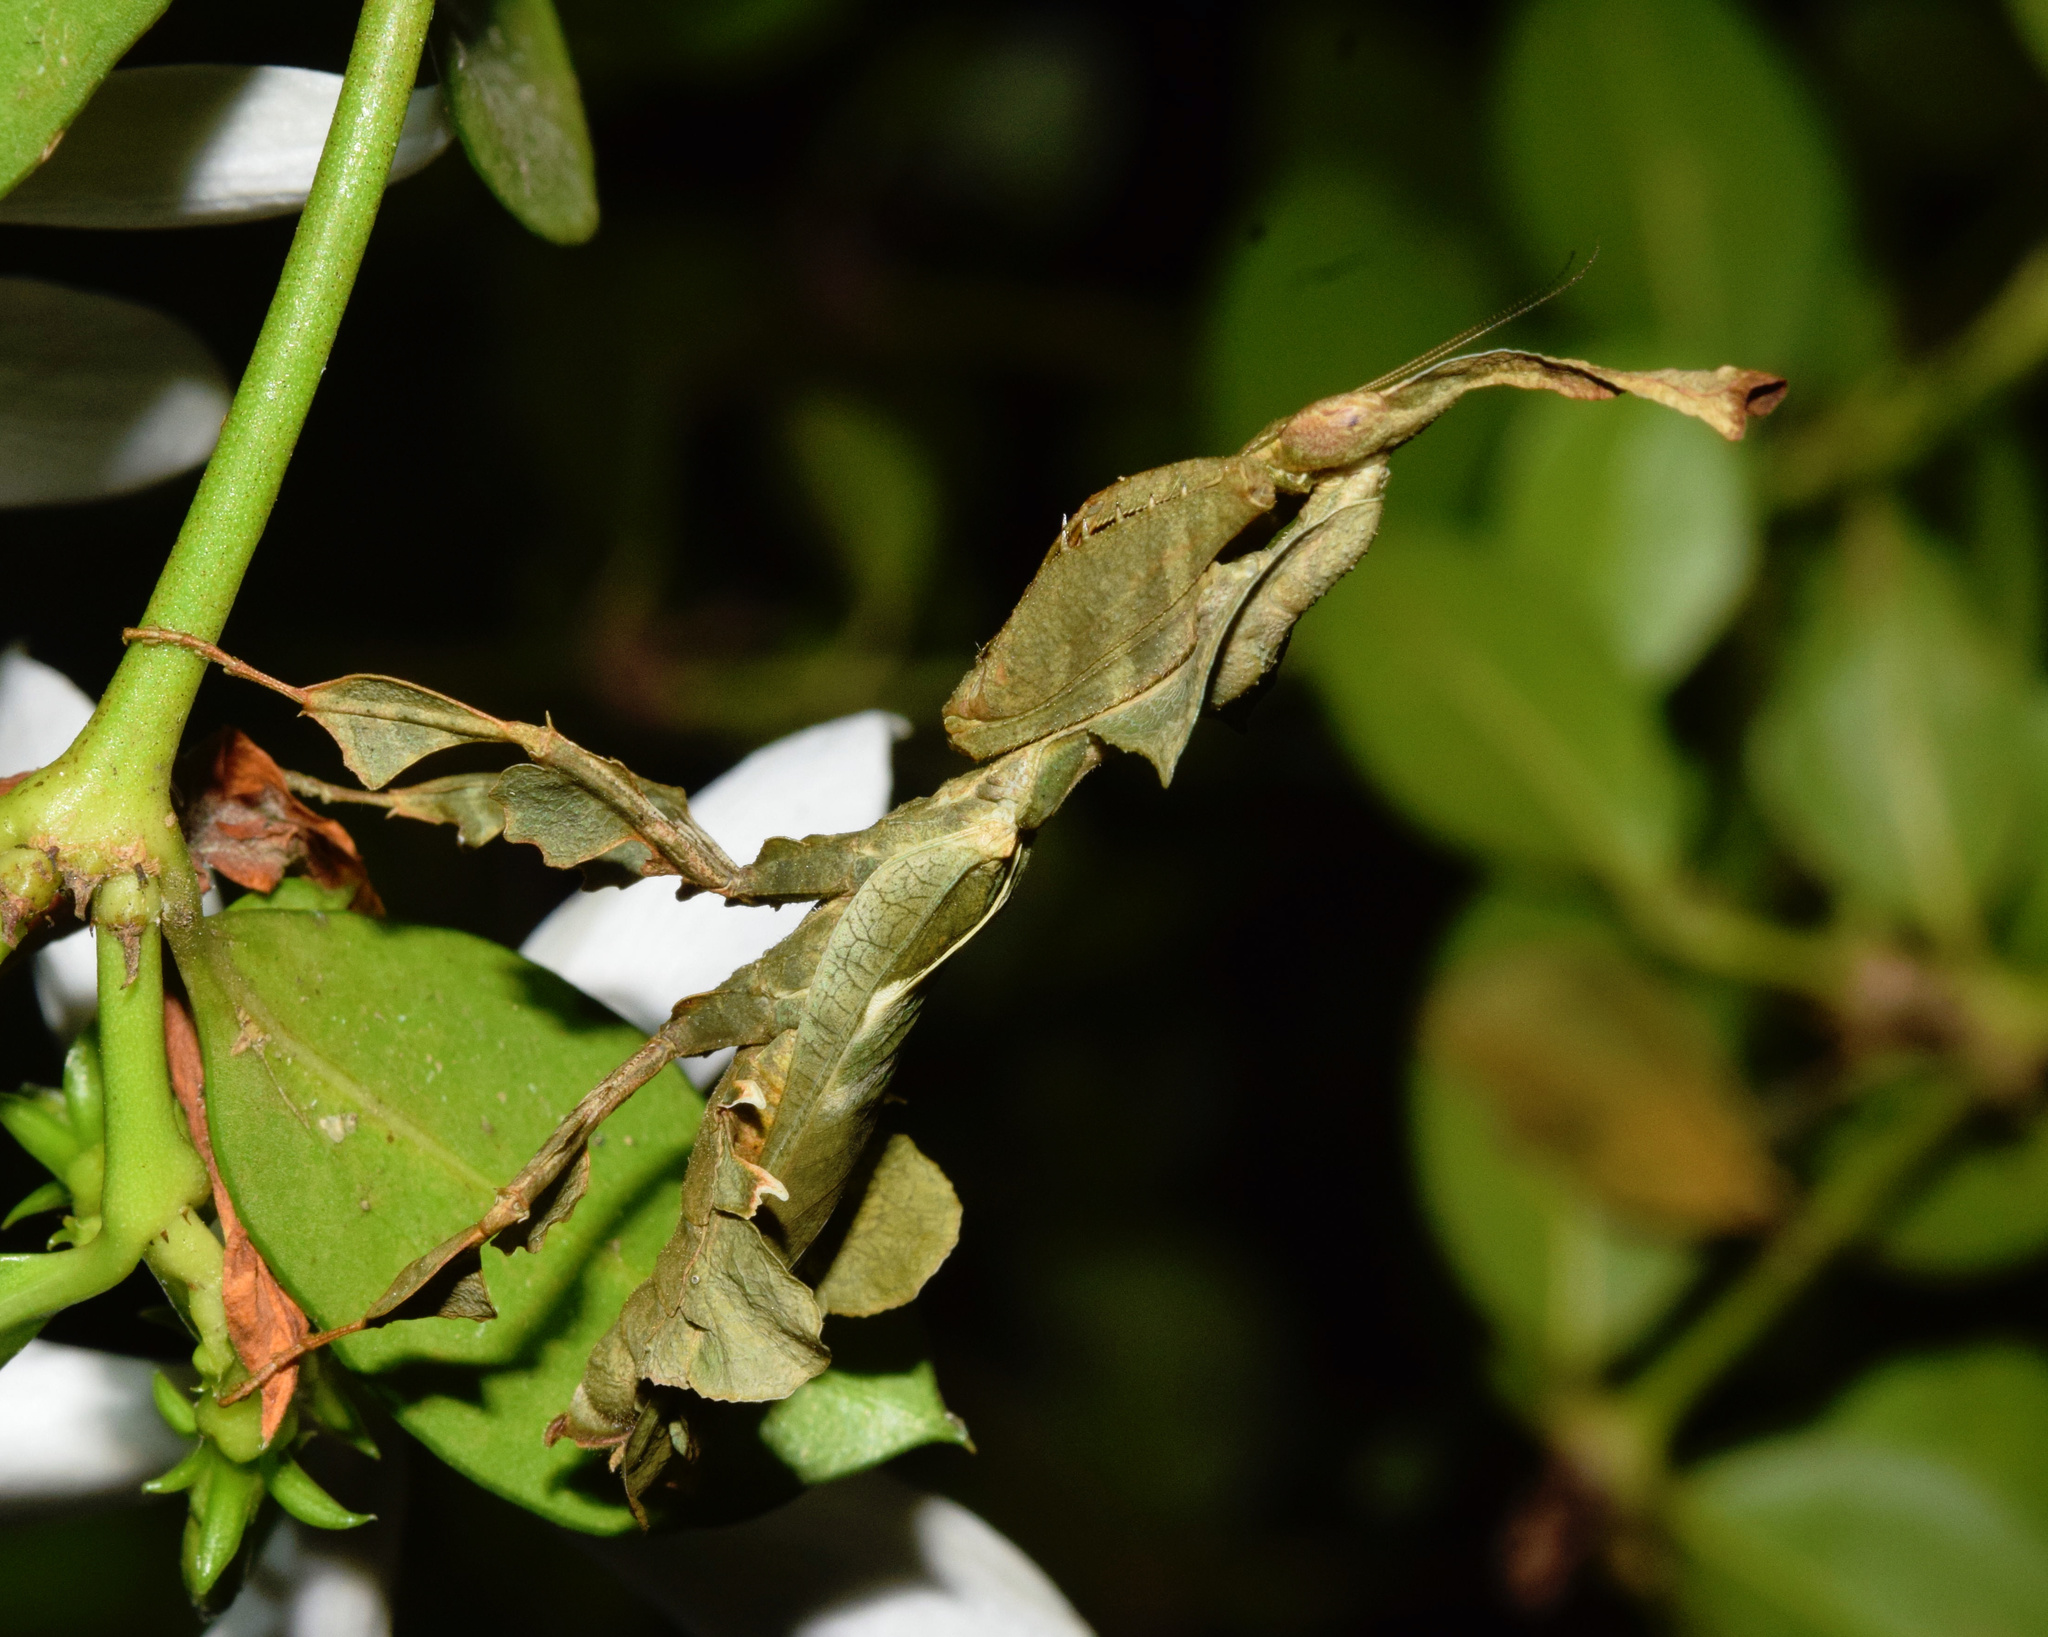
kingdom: Animalia
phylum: Arthropoda
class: Insecta
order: Mantodea
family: Hymenopodidae
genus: Phyllocrania
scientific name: Phyllocrania paradoxa
